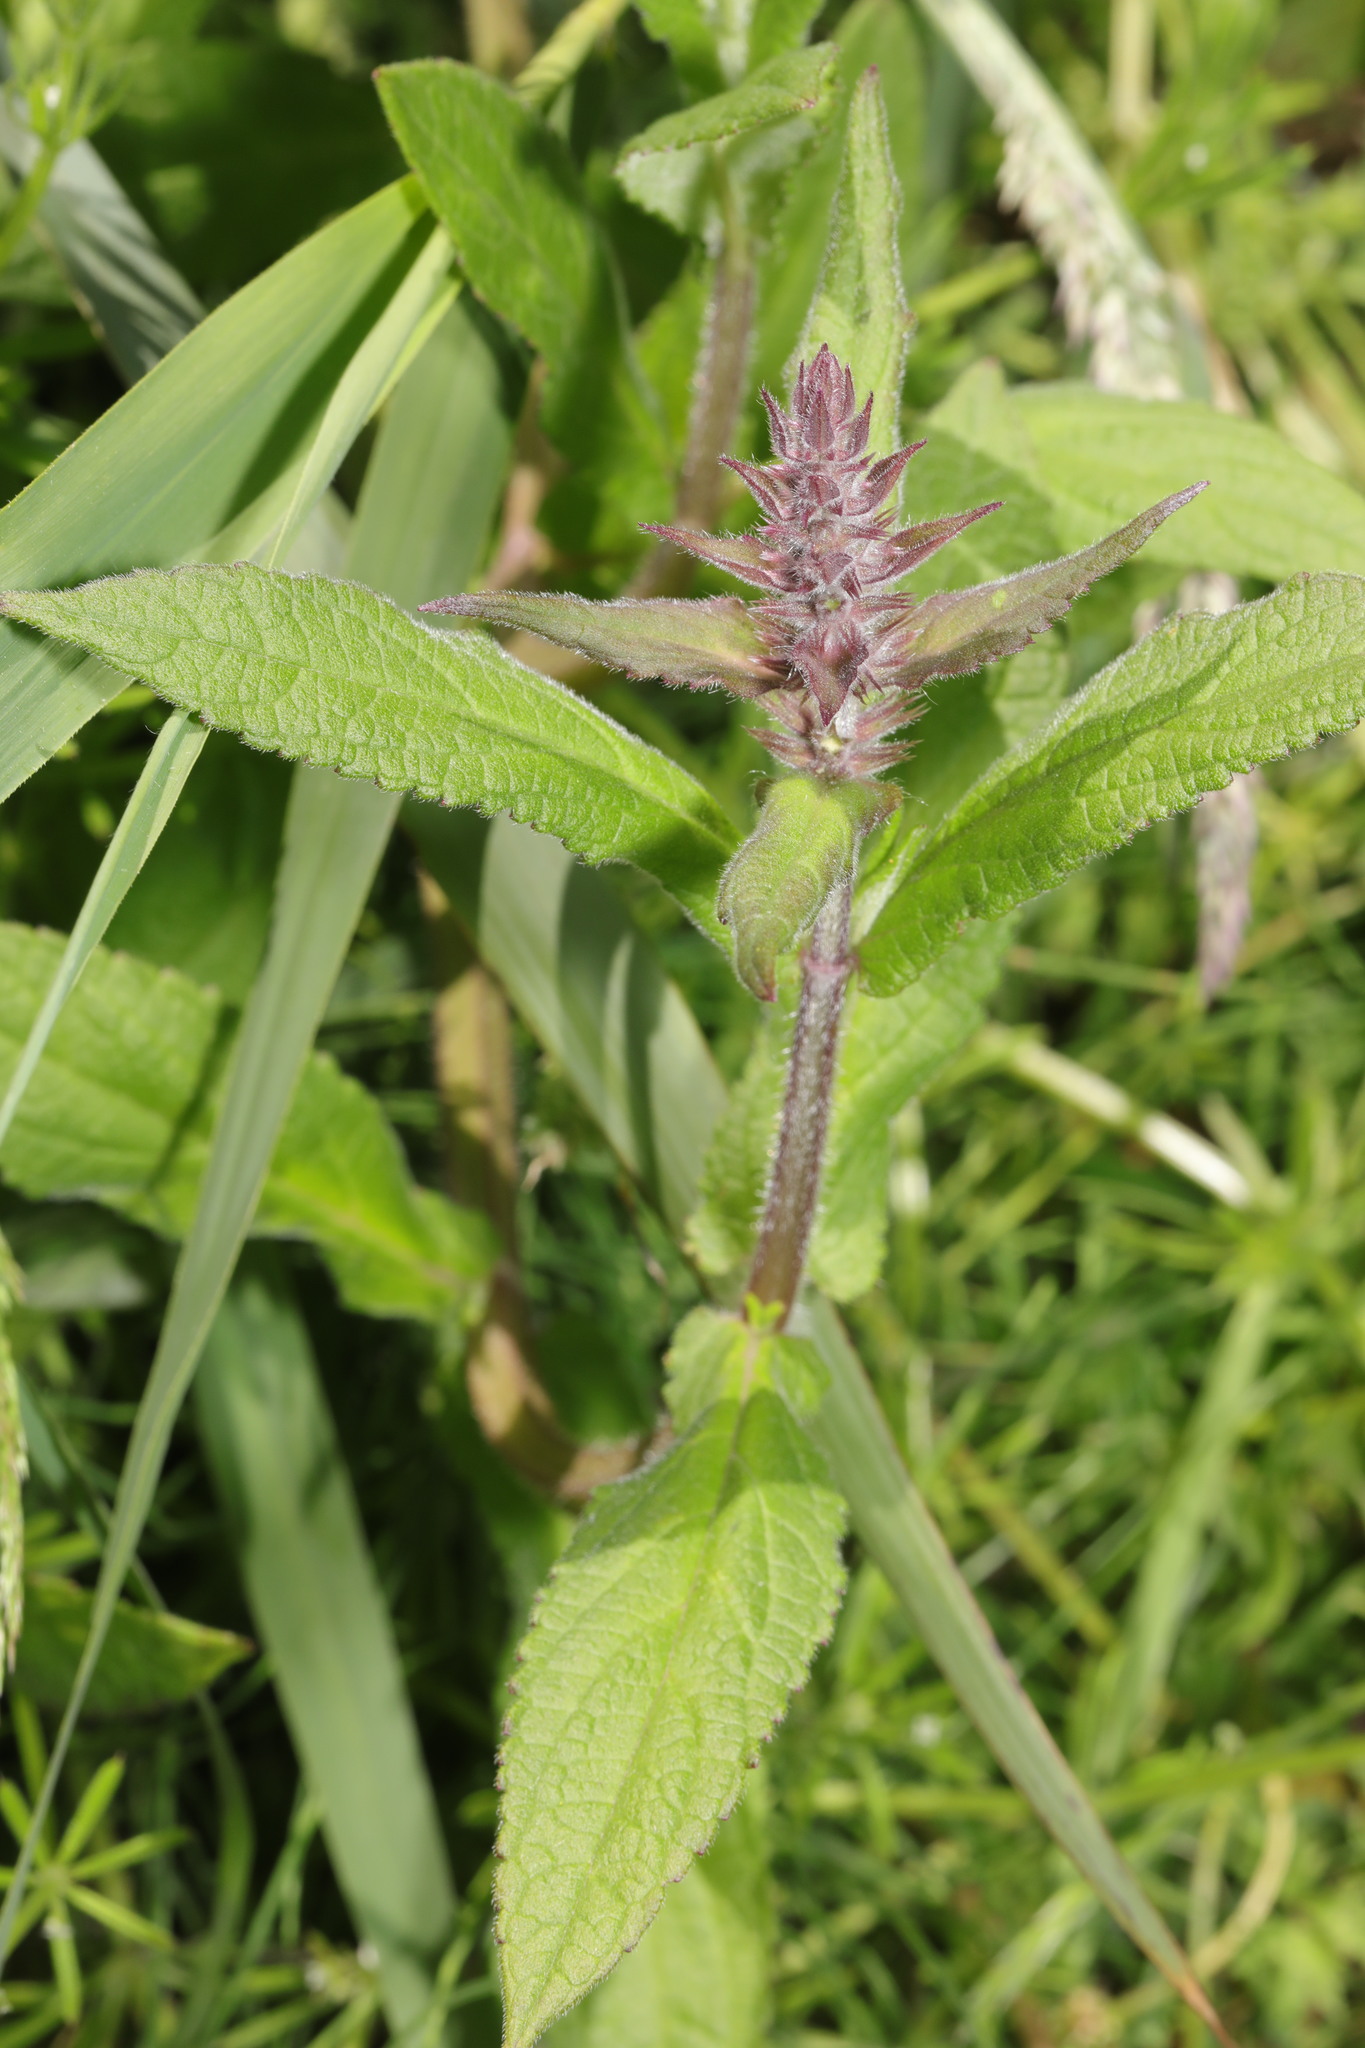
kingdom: Plantae
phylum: Tracheophyta
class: Magnoliopsida
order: Lamiales
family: Lamiaceae
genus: Stachys
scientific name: Stachys palustris
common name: Marsh woundwort
